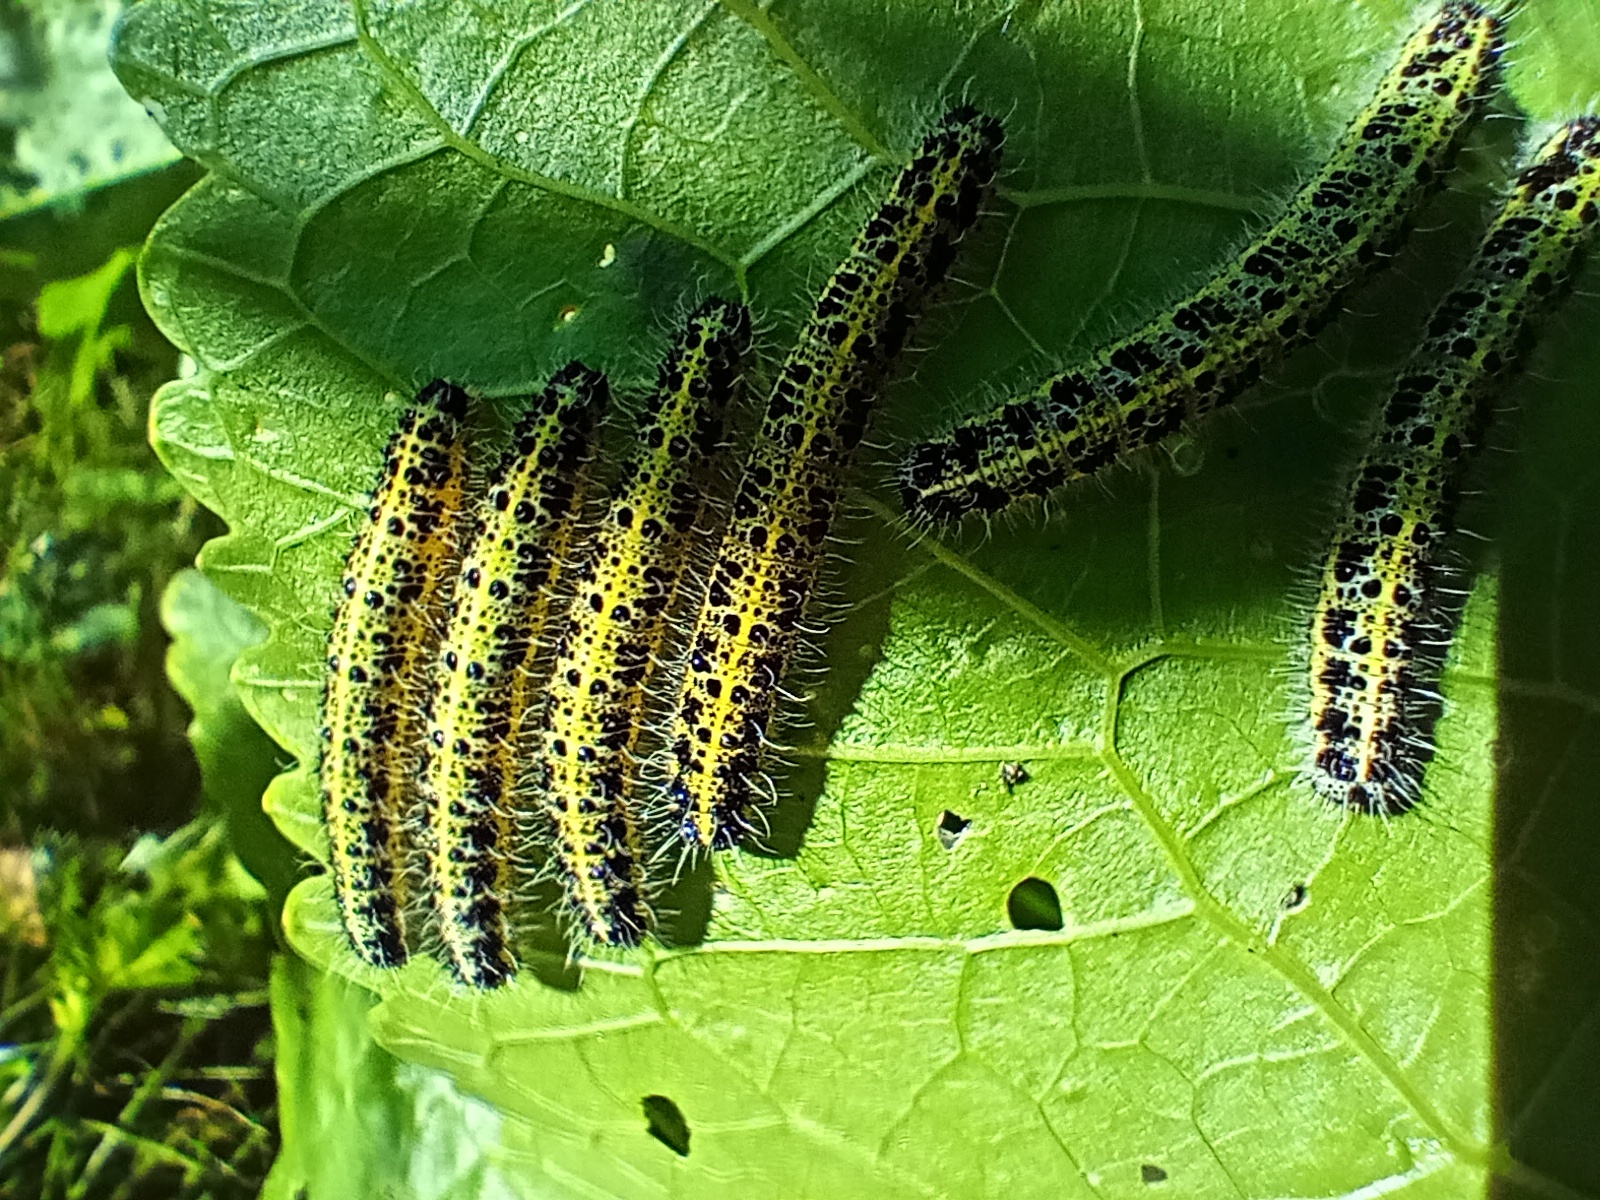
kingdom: Animalia
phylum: Arthropoda
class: Insecta
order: Lepidoptera
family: Pieridae
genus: Pieris
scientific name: Pieris brassicae
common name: Large white
